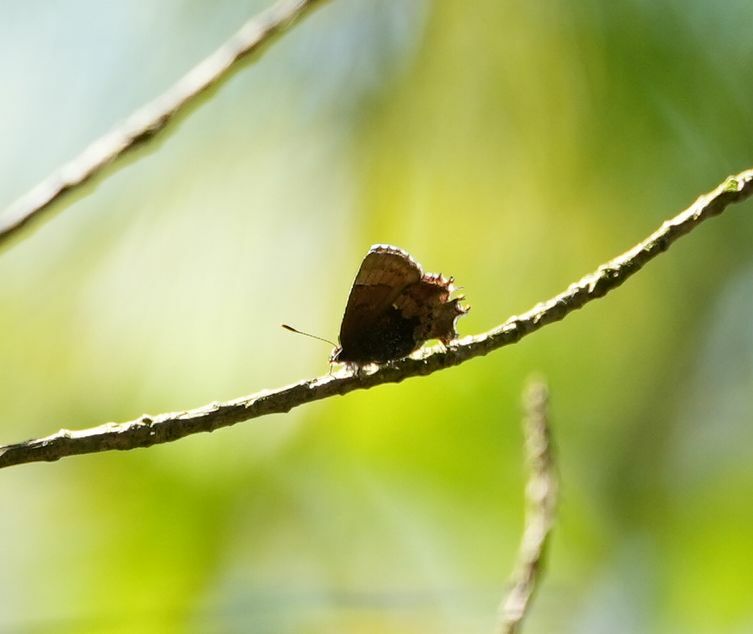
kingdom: Animalia
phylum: Arthropoda
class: Insecta
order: Lepidoptera
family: Lycaenidae
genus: Incisalia
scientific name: Incisalia henrici
